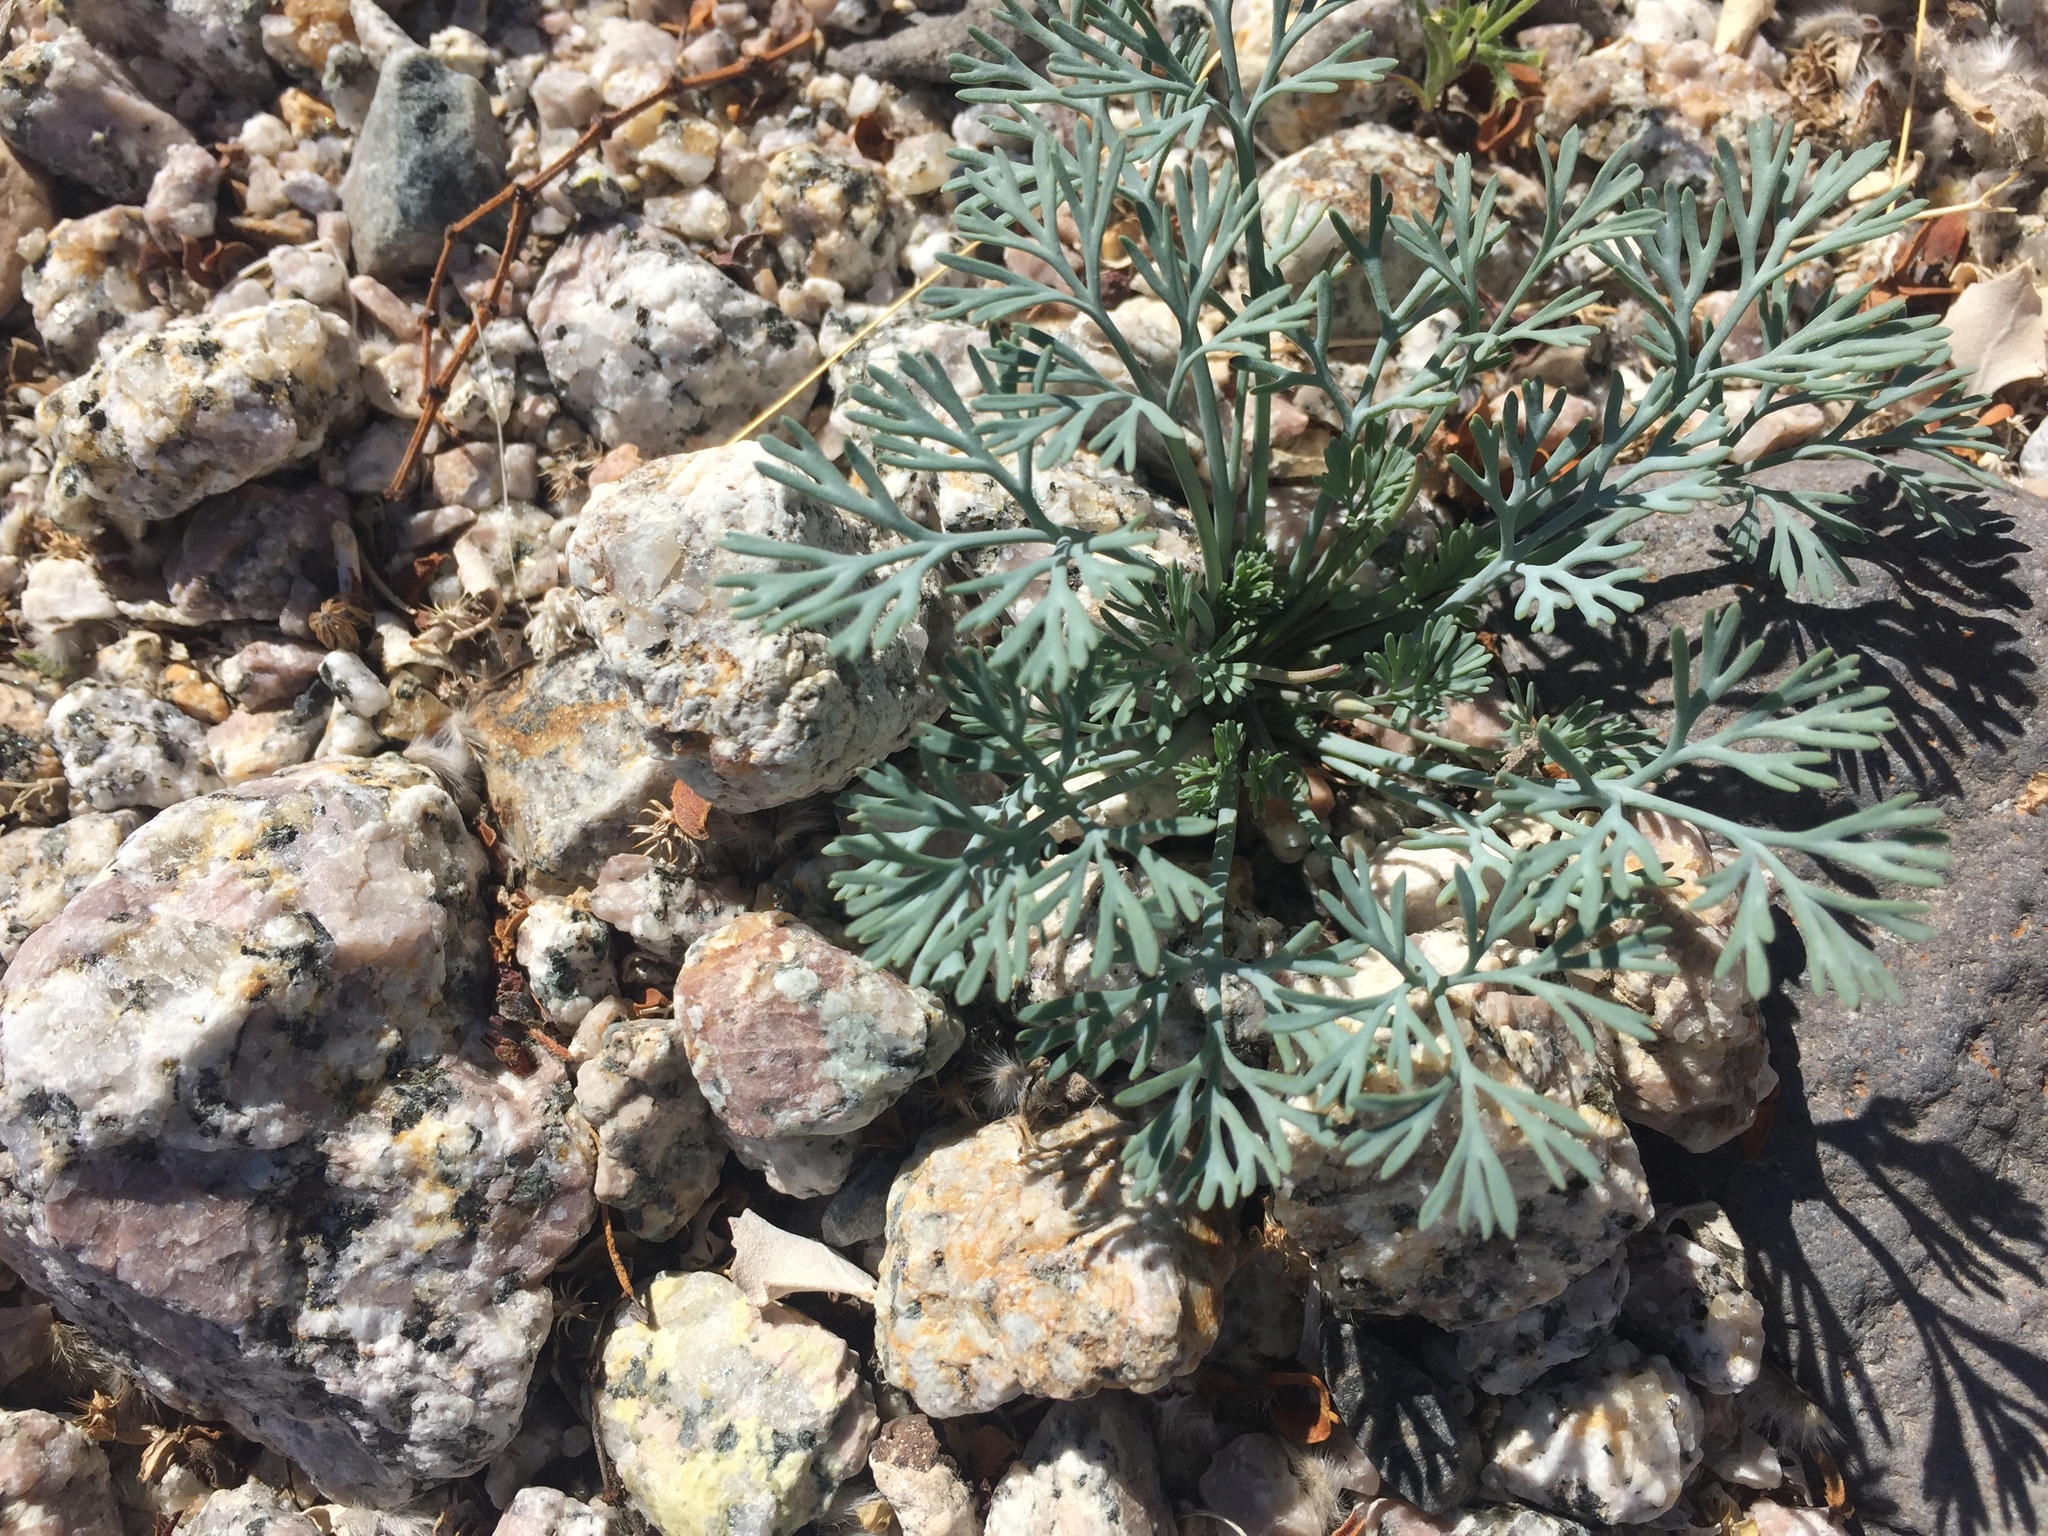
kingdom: Plantae
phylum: Tracheophyta
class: Magnoliopsida
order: Ranunculales
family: Papaveraceae
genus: Eschscholzia
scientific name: Eschscholzia minutiflora
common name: Small-flower california-poppy
